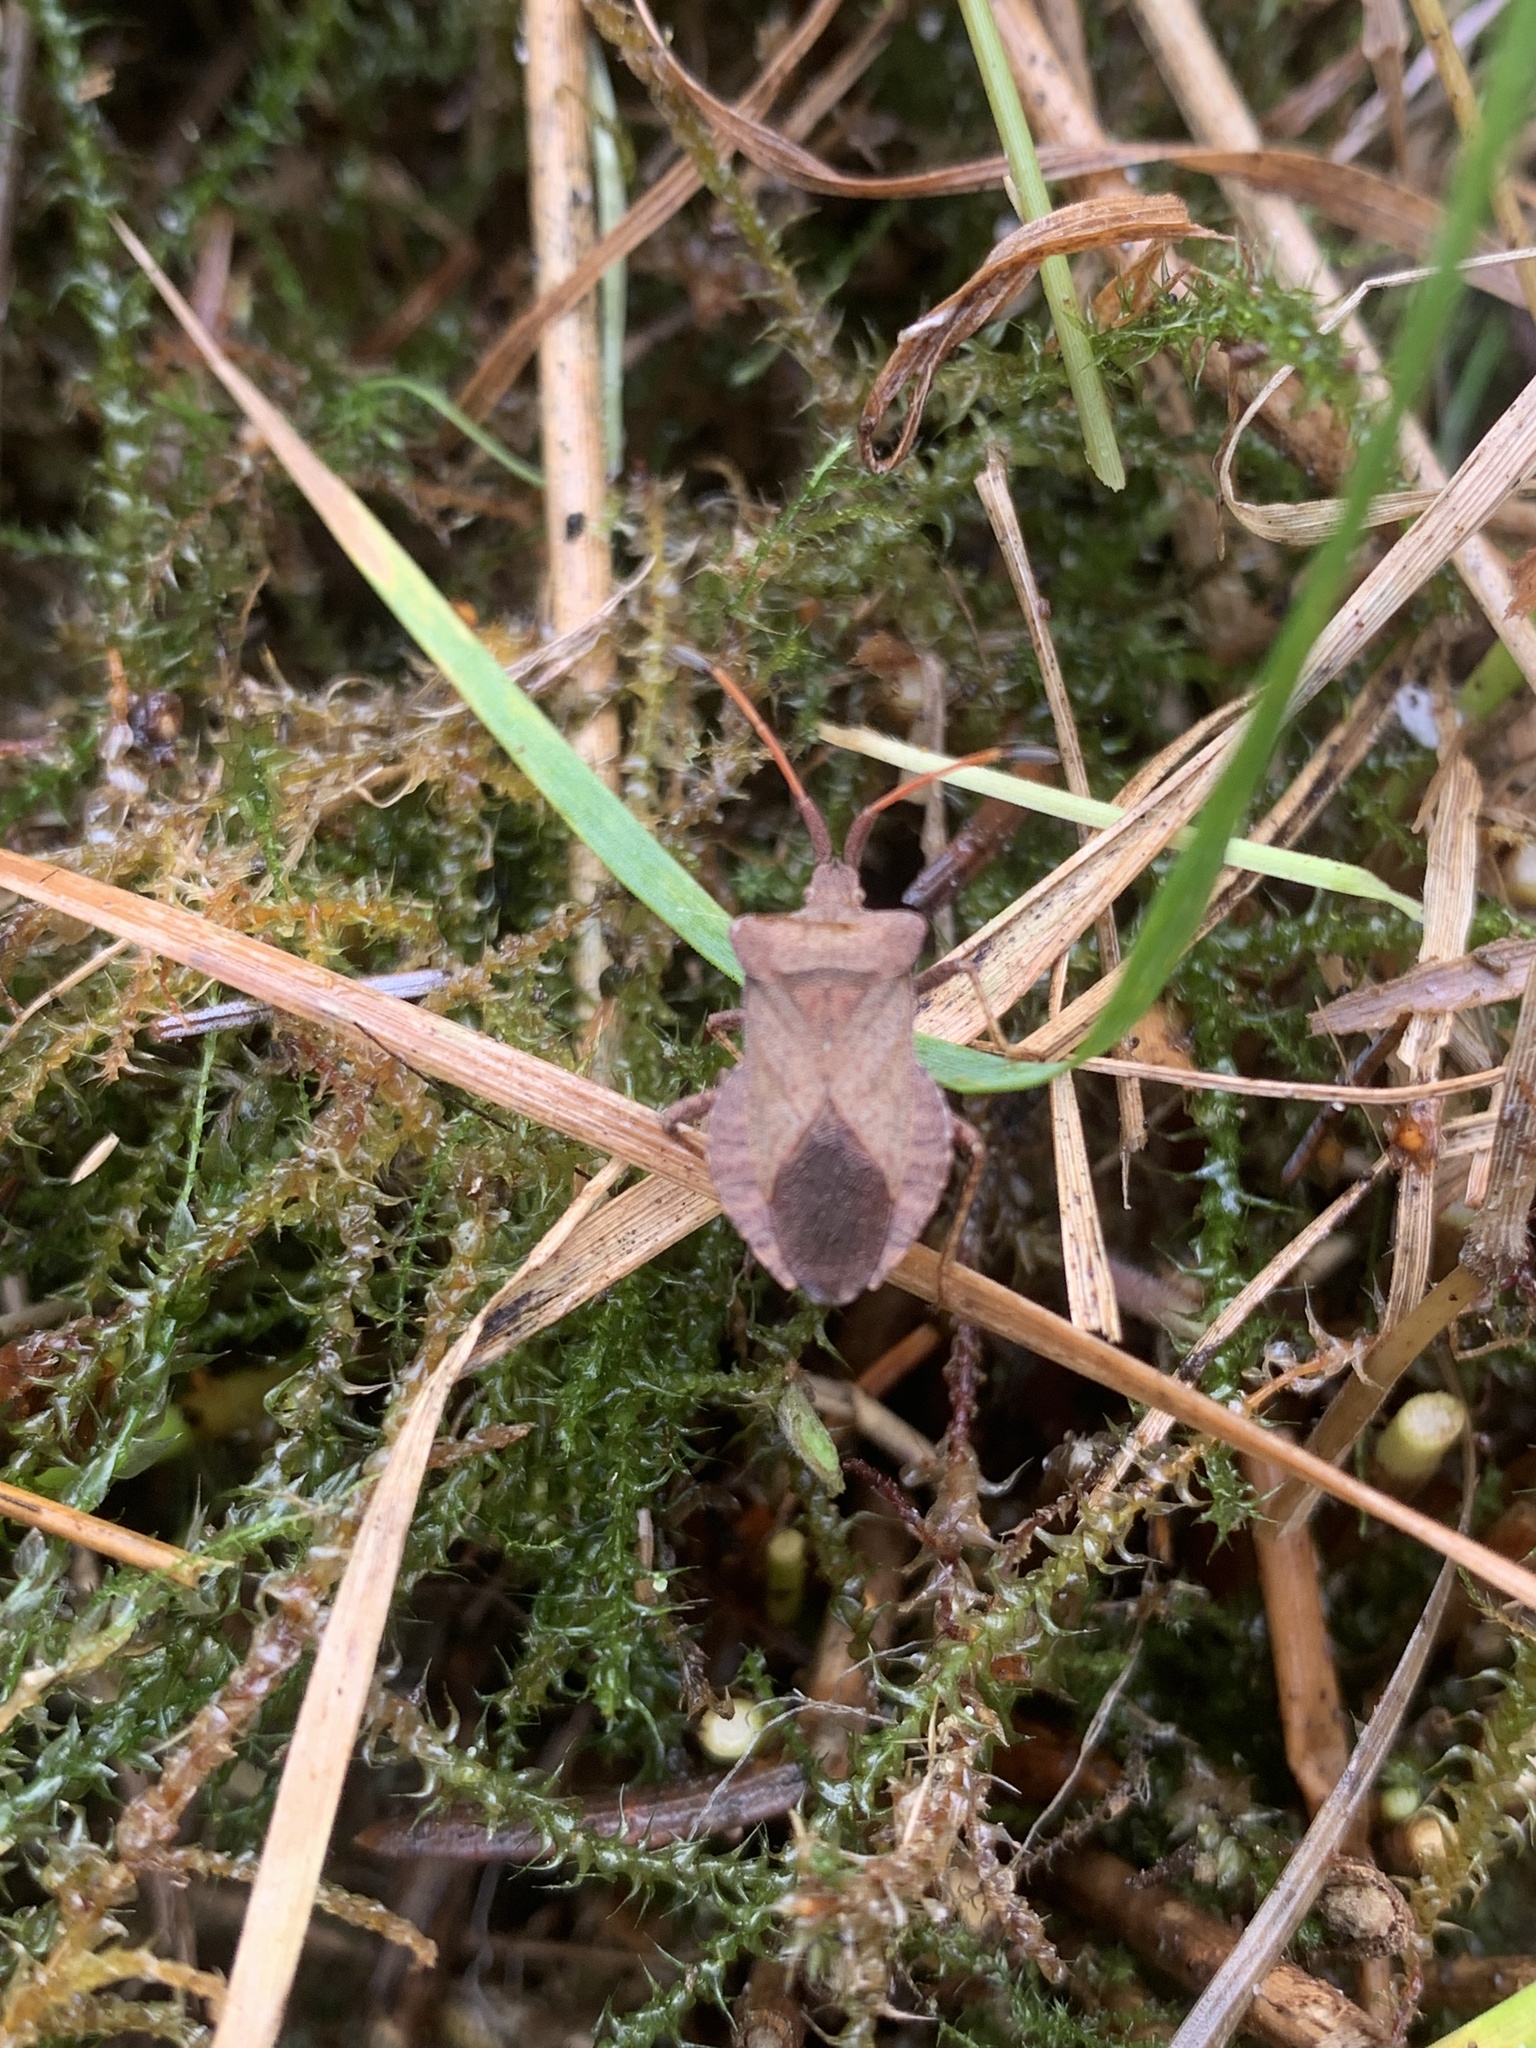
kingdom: Animalia
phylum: Arthropoda
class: Insecta
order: Hemiptera
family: Coreidae
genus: Coreus
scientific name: Coreus marginatus
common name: Dock bug
